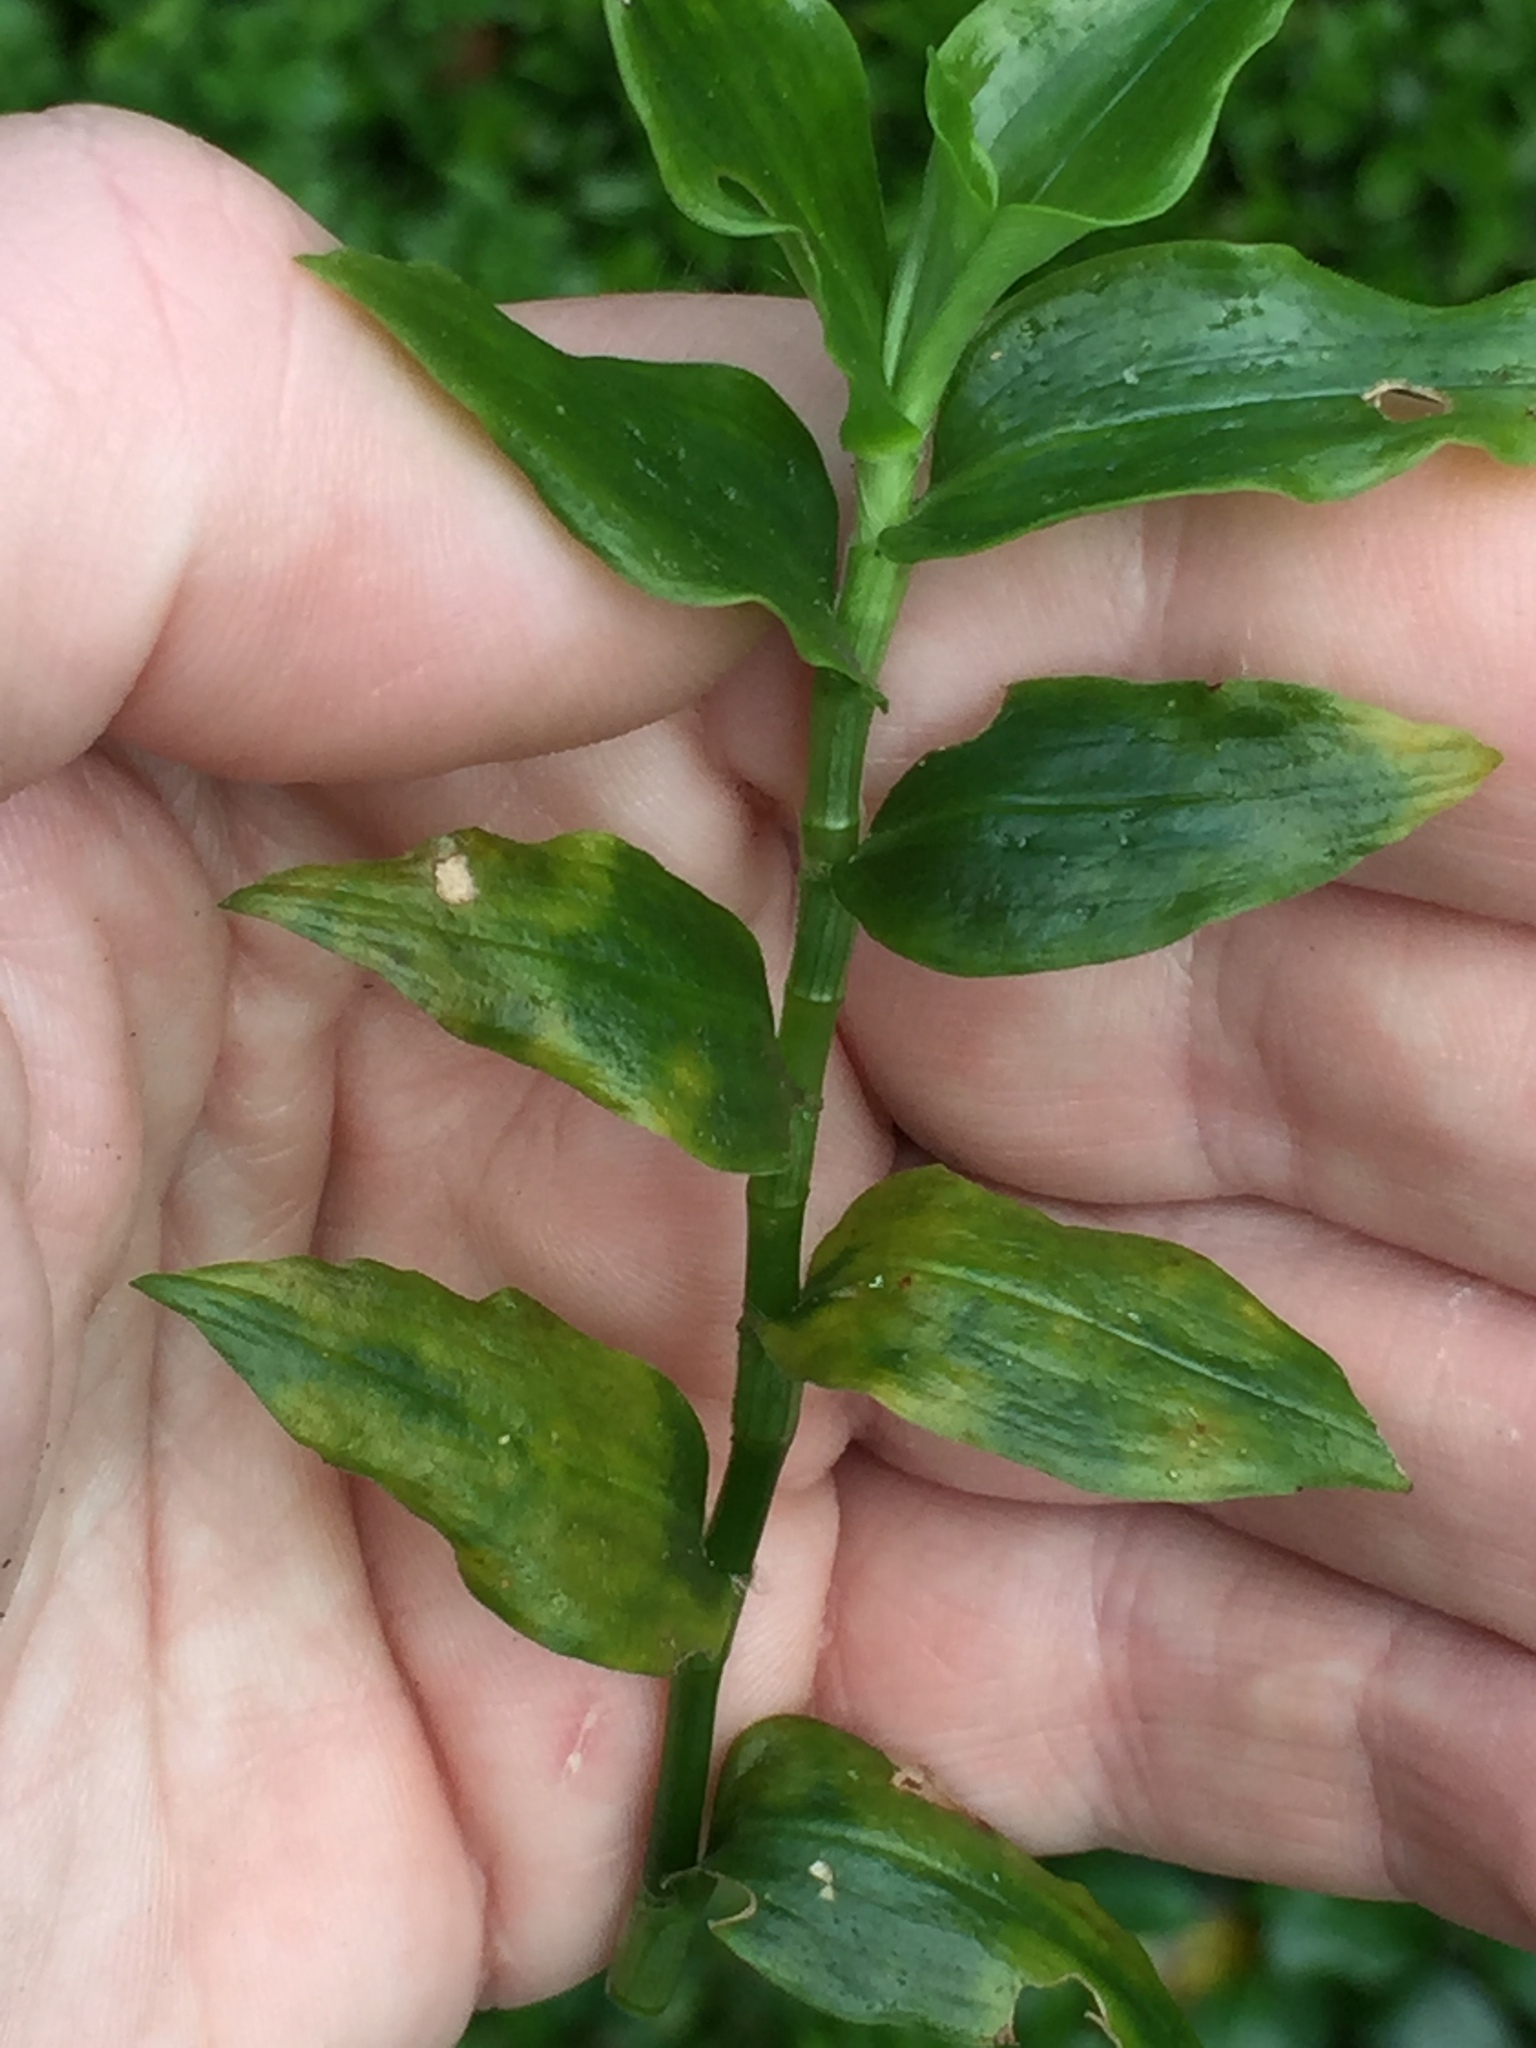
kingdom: Fungi
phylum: Basidiomycota
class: Exobasidiomycetes
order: Exobasidiales
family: Brachybasidiaceae
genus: Kordyana
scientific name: Kordyana brasiliensis
